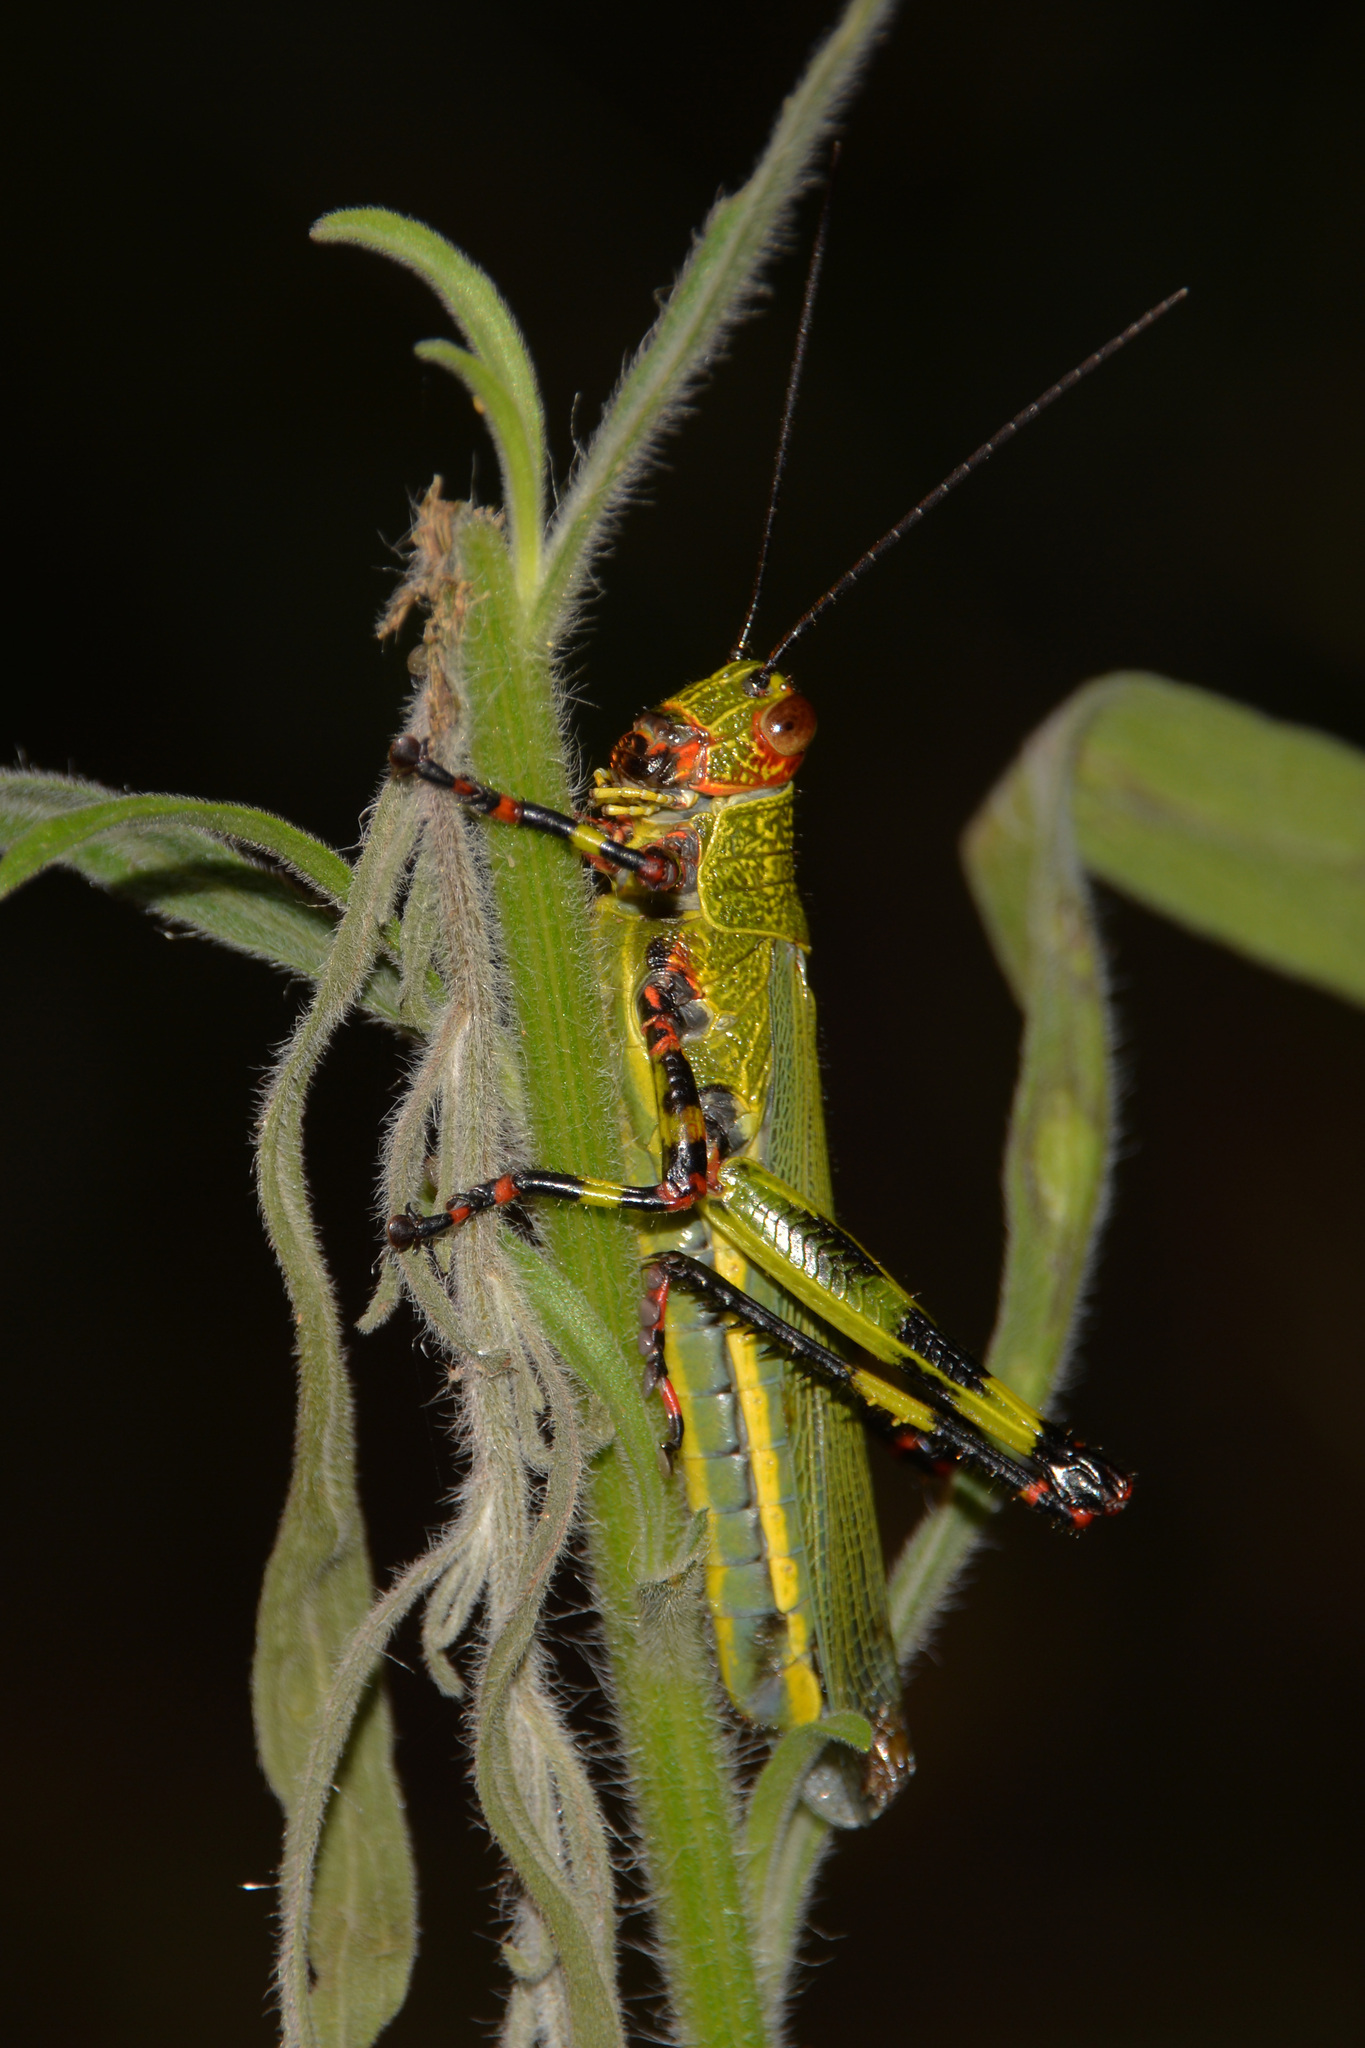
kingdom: Animalia
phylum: Arthropoda
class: Insecta
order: Orthoptera
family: Romaleidae
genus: Zoniopoda
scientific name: Zoniopoda tarsata
